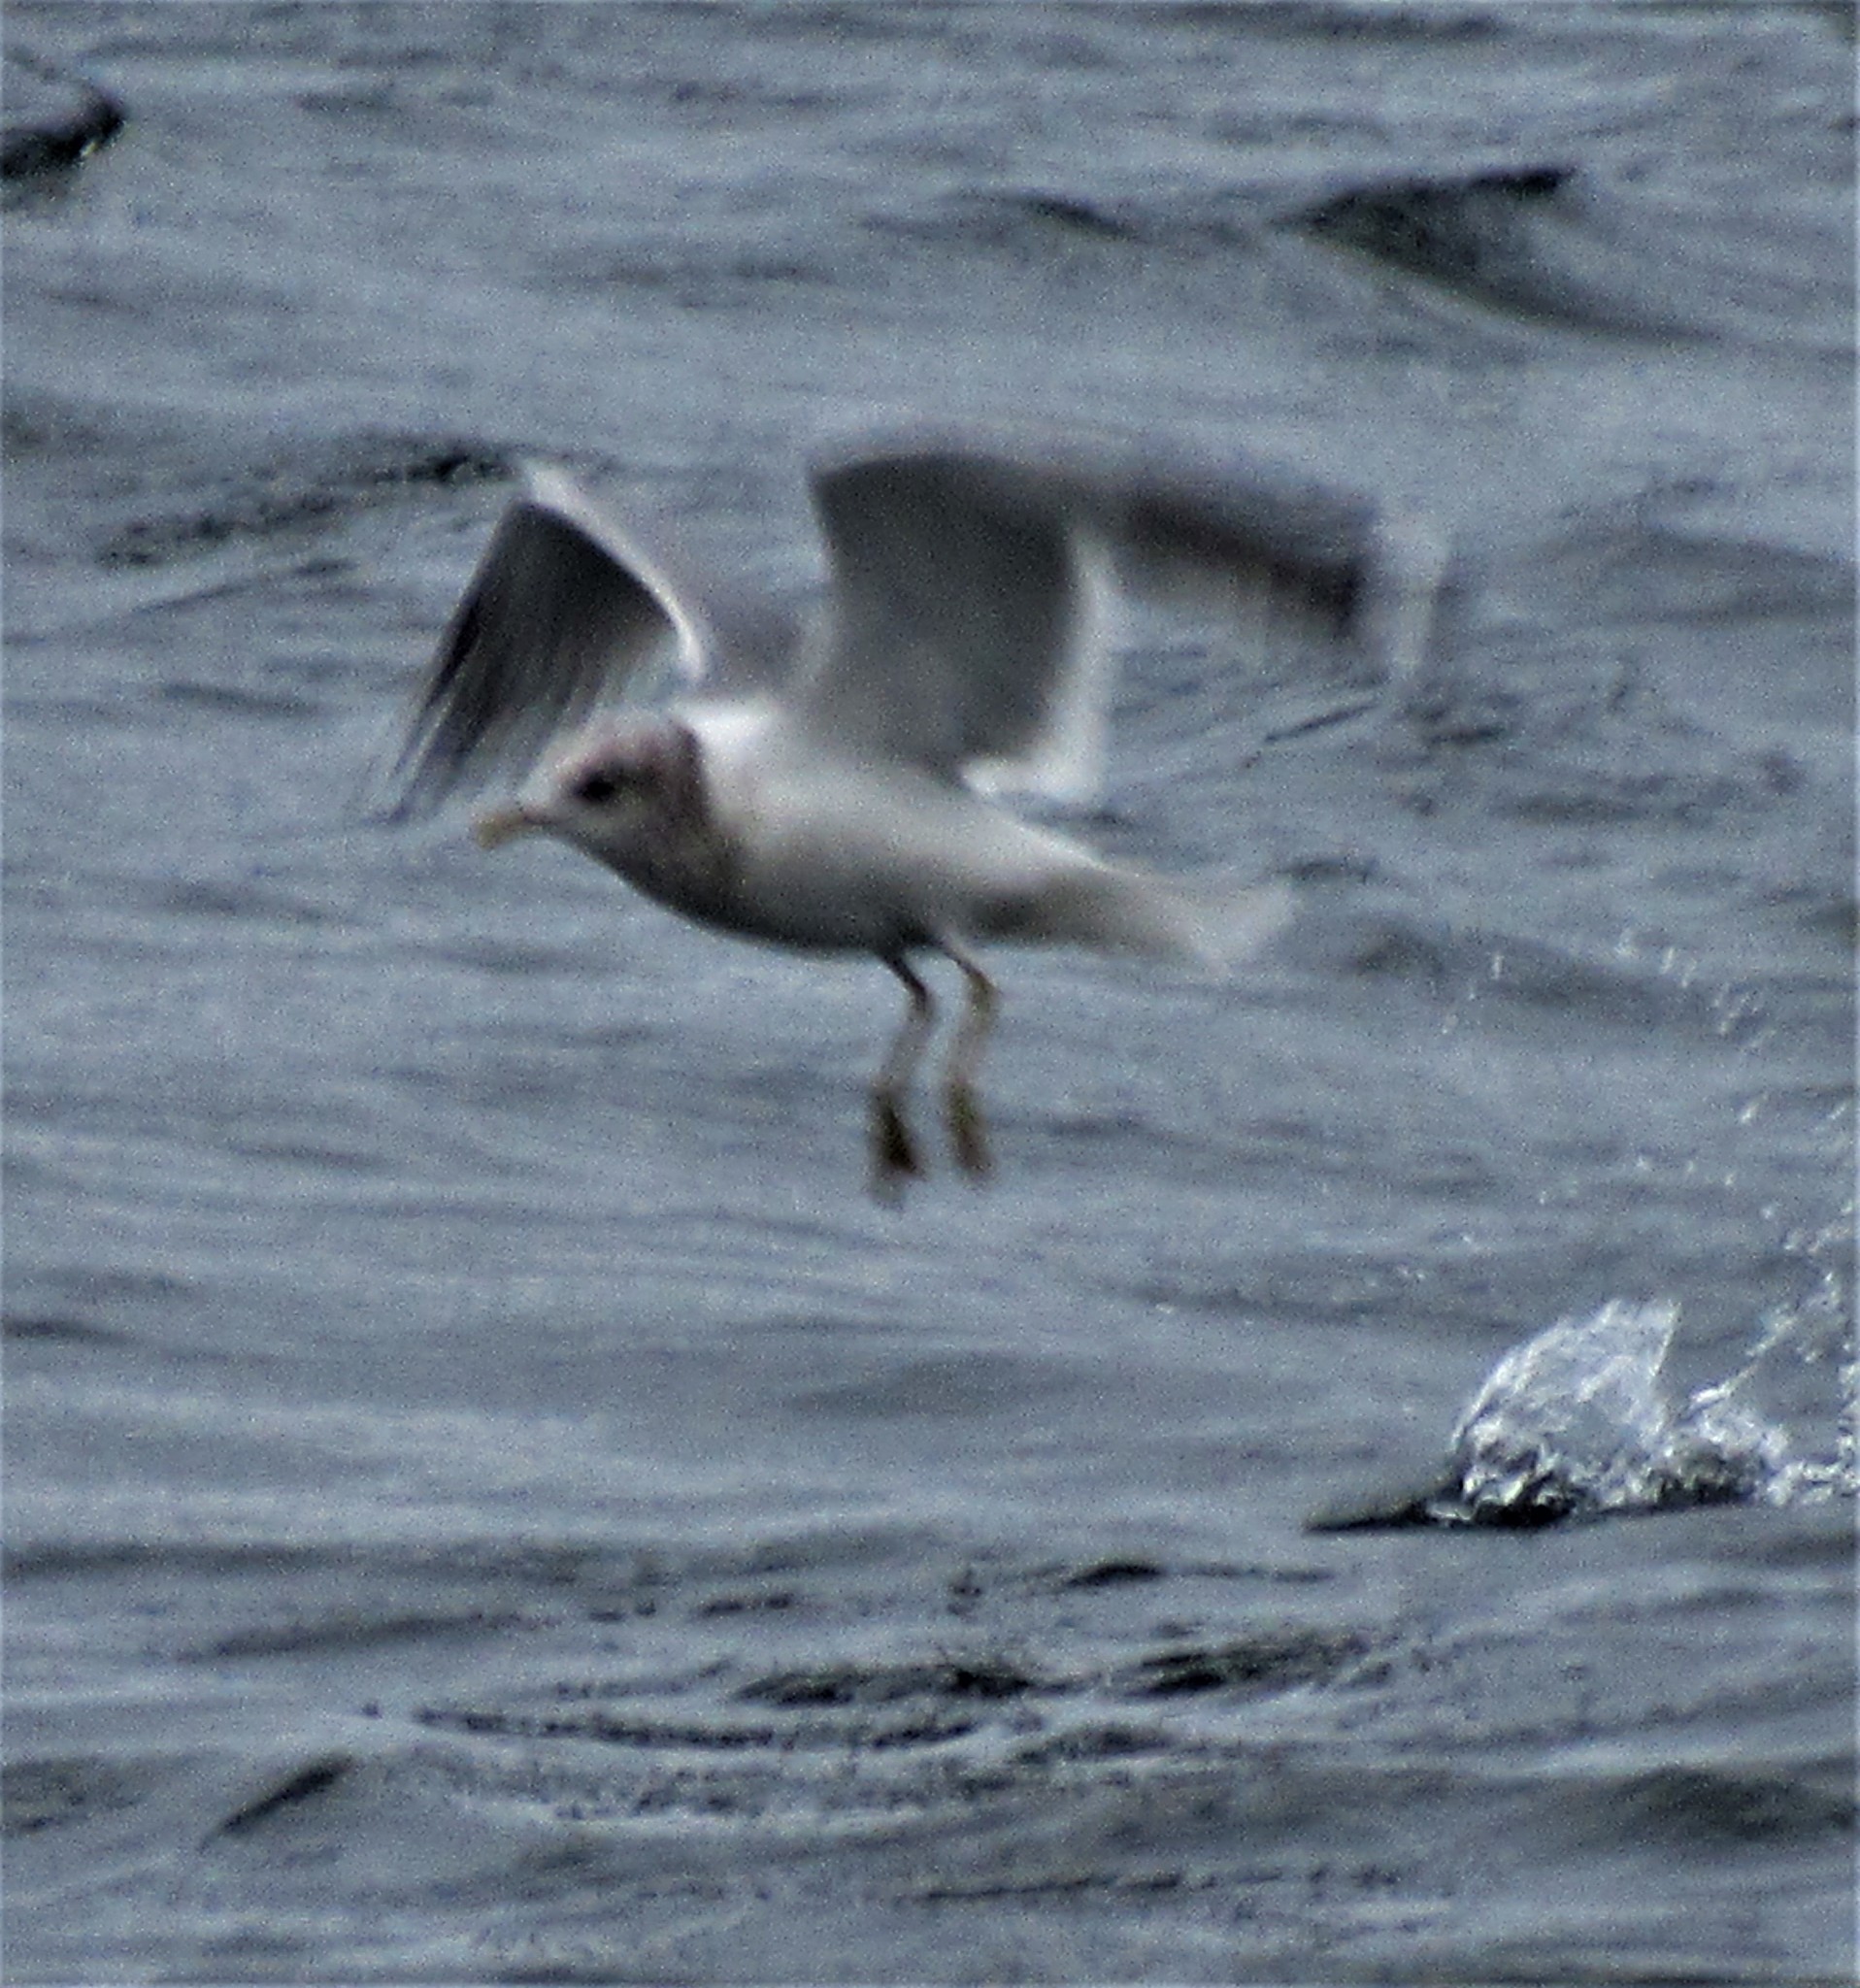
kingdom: Animalia
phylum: Chordata
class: Aves
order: Charadriiformes
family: Laridae
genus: Larus
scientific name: Larus brachyrhynchus
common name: Short-billed gull
